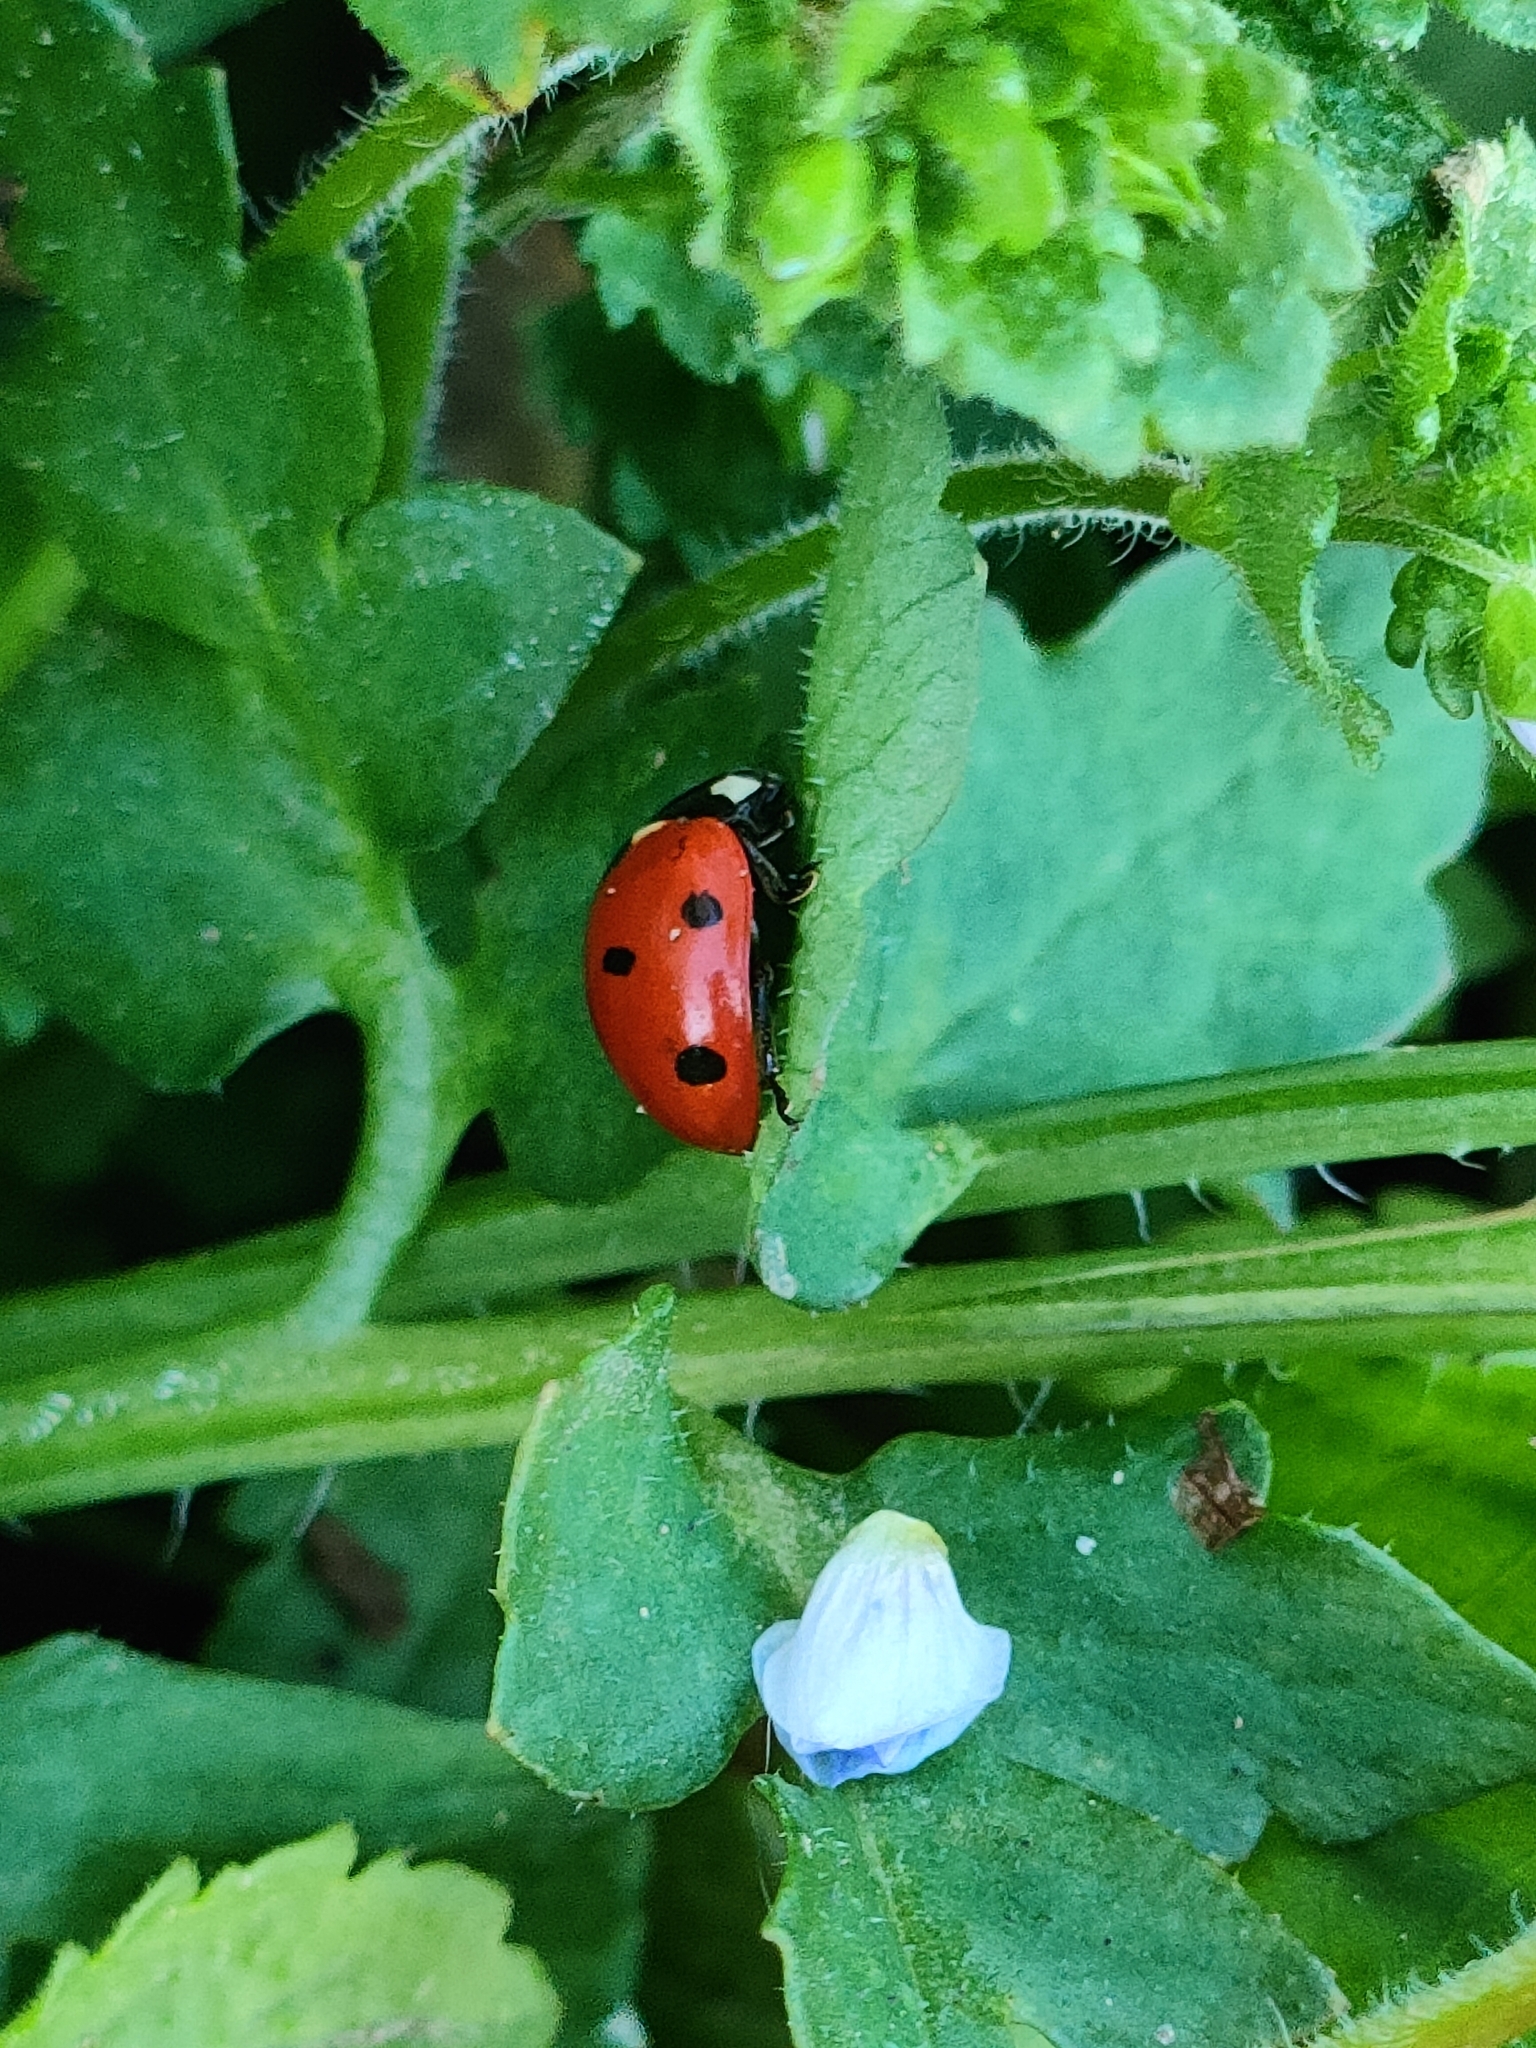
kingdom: Animalia
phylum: Arthropoda
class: Insecta
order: Coleoptera
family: Coccinellidae
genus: Coccinella
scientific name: Coccinella septempunctata
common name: Sevenspotted lady beetle
